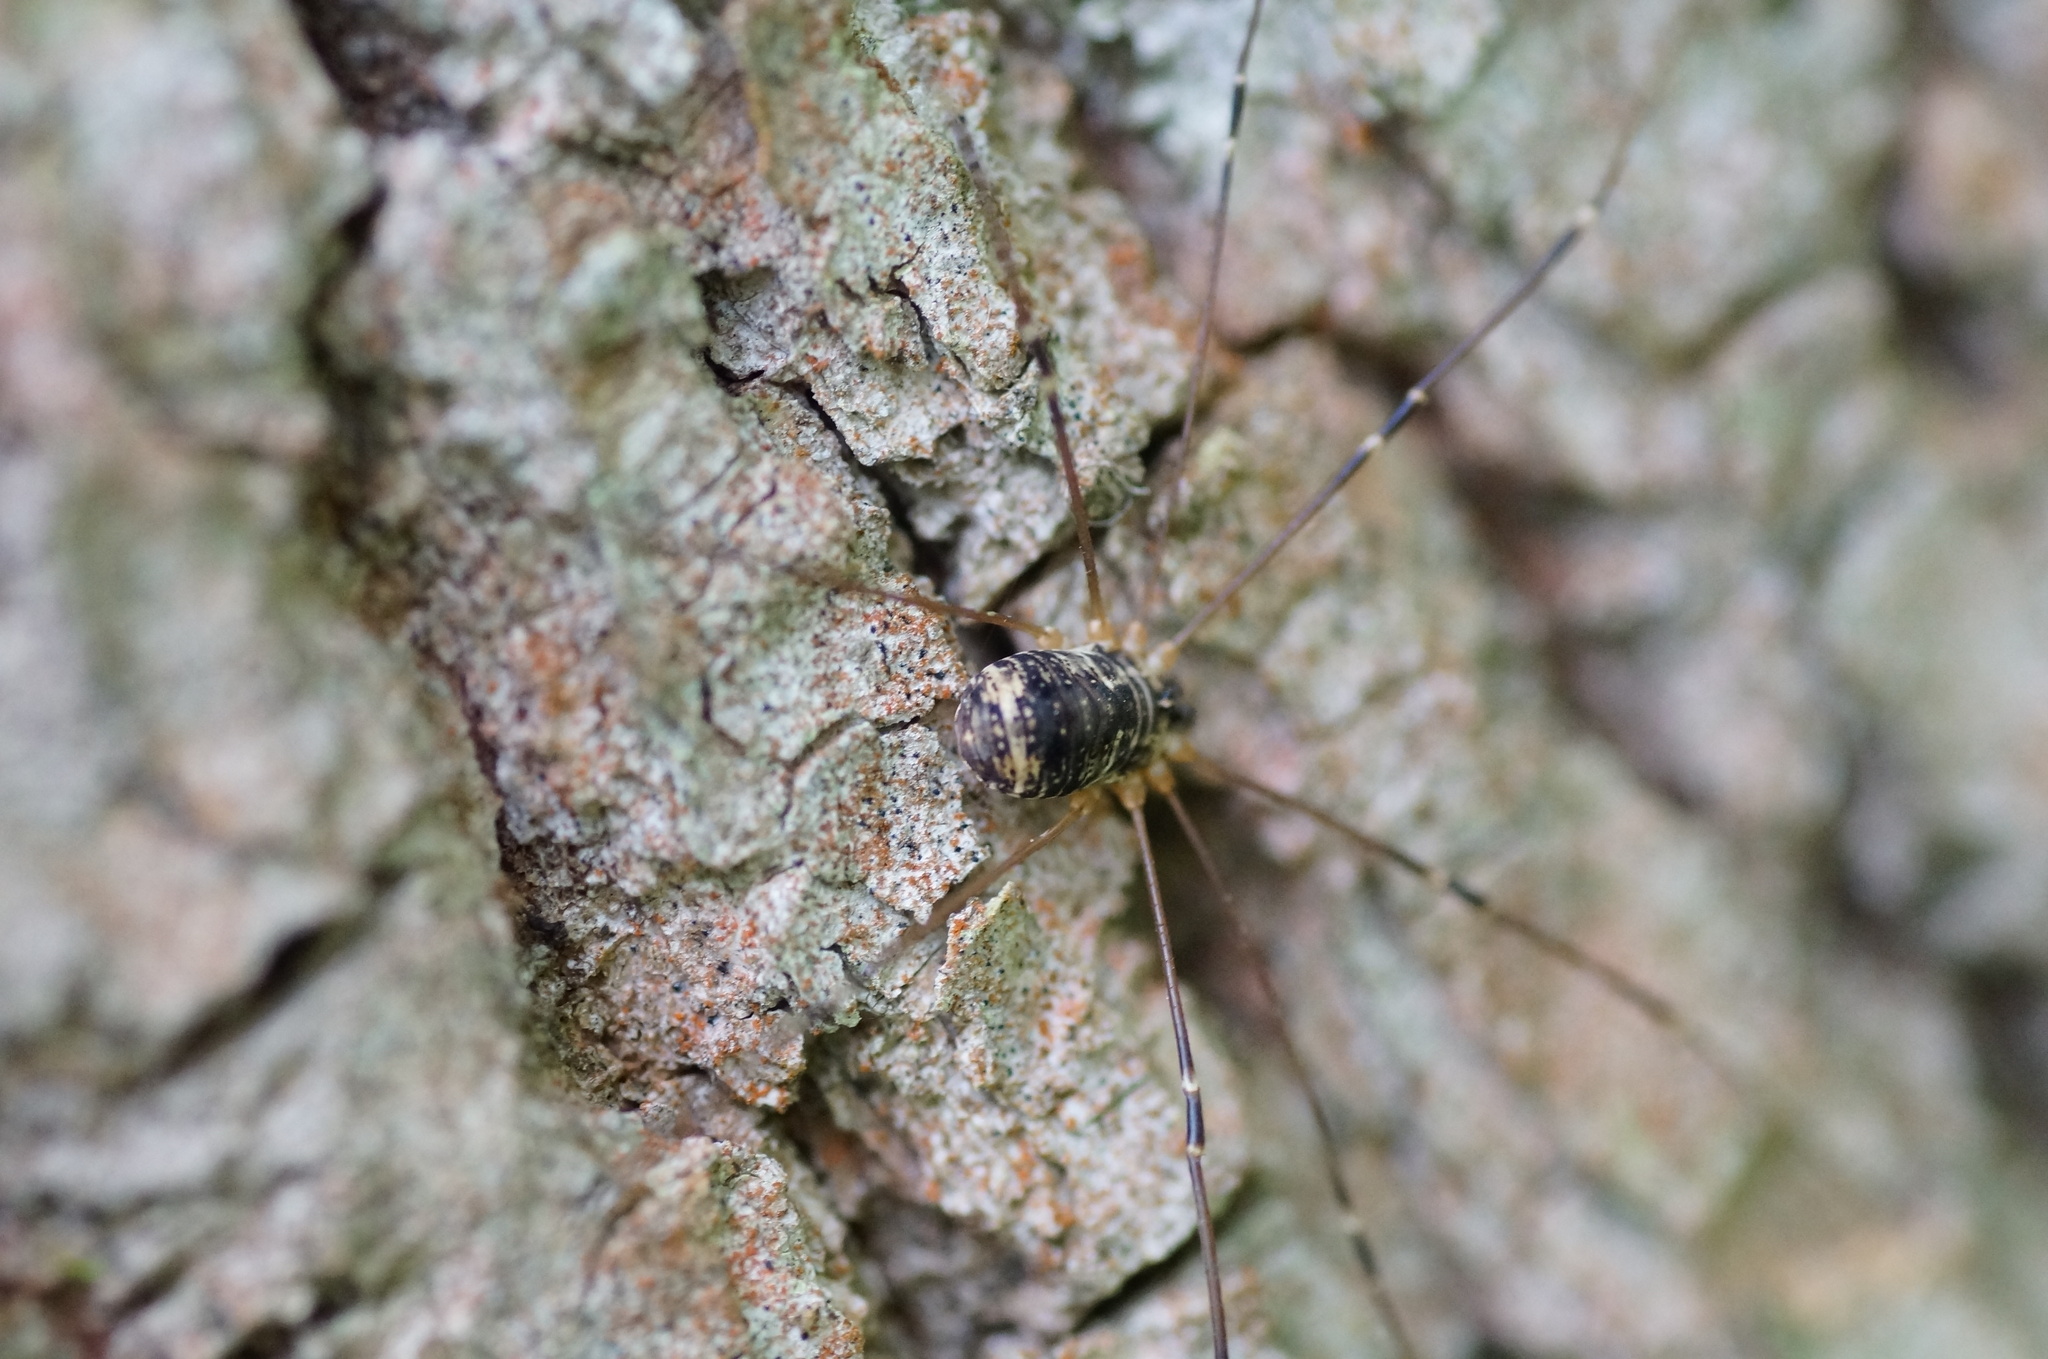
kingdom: Animalia
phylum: Arthropoda
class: Arachnida
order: Opiliones
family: Sclerosomatidae
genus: Leiobunum
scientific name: Leiobunum gracile
